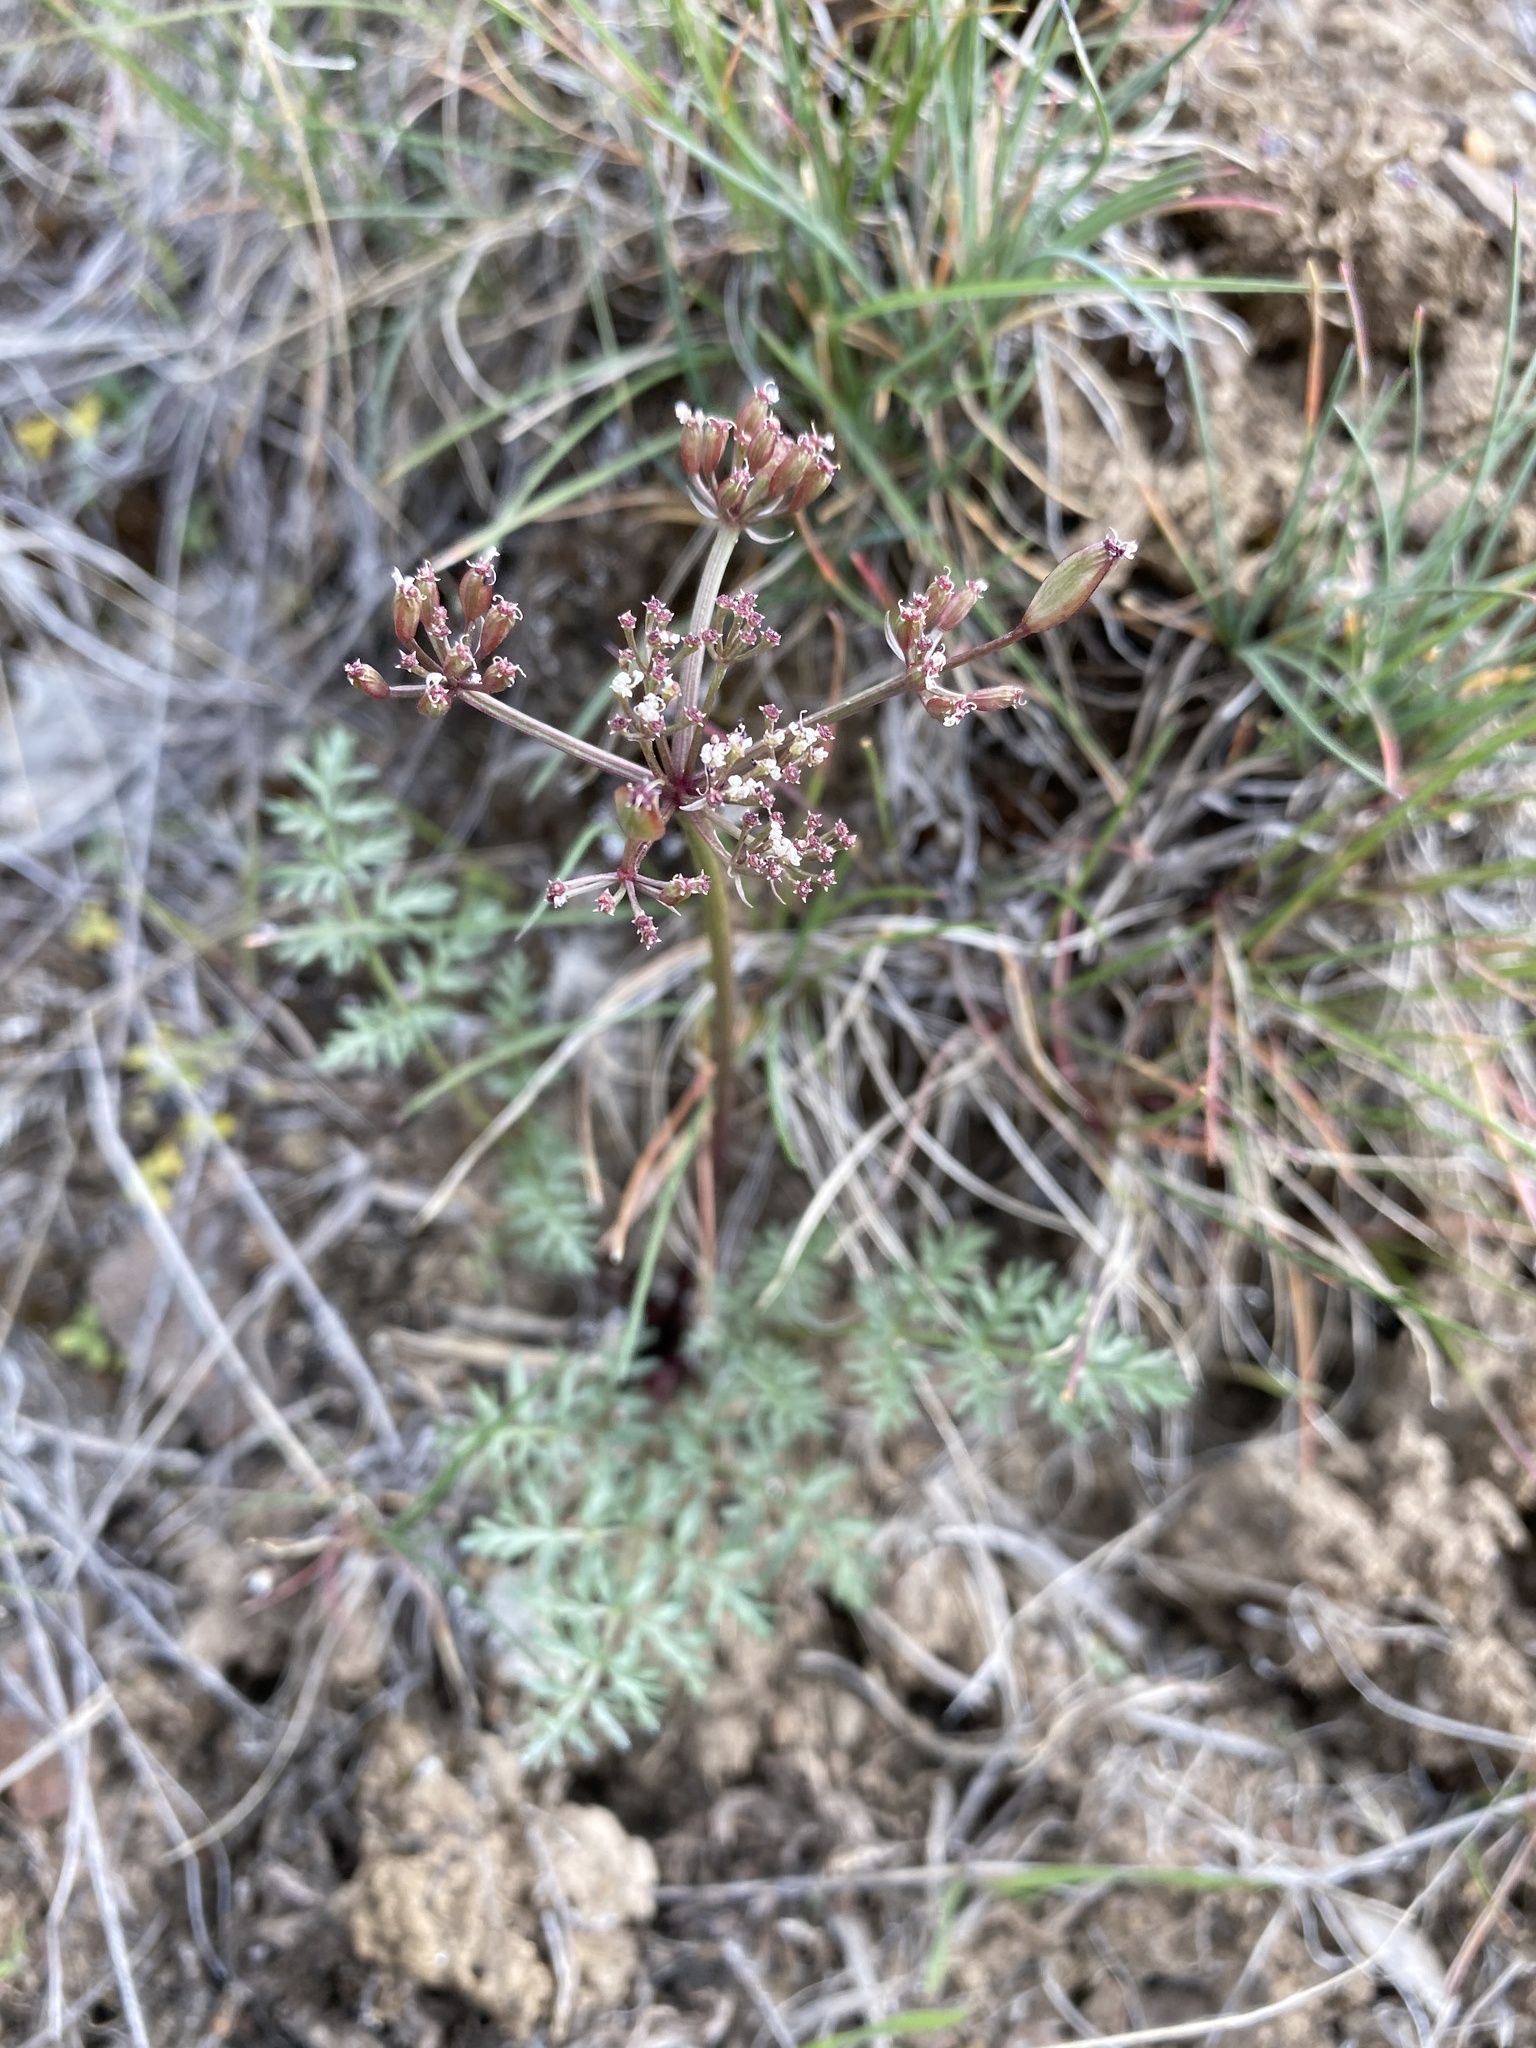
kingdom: Plantae
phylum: Tracheophyta
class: Magnoliopsida
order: Apiales
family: Apiaceae
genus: Lomatium
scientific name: Lomatium canbyi
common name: Chucklusa
